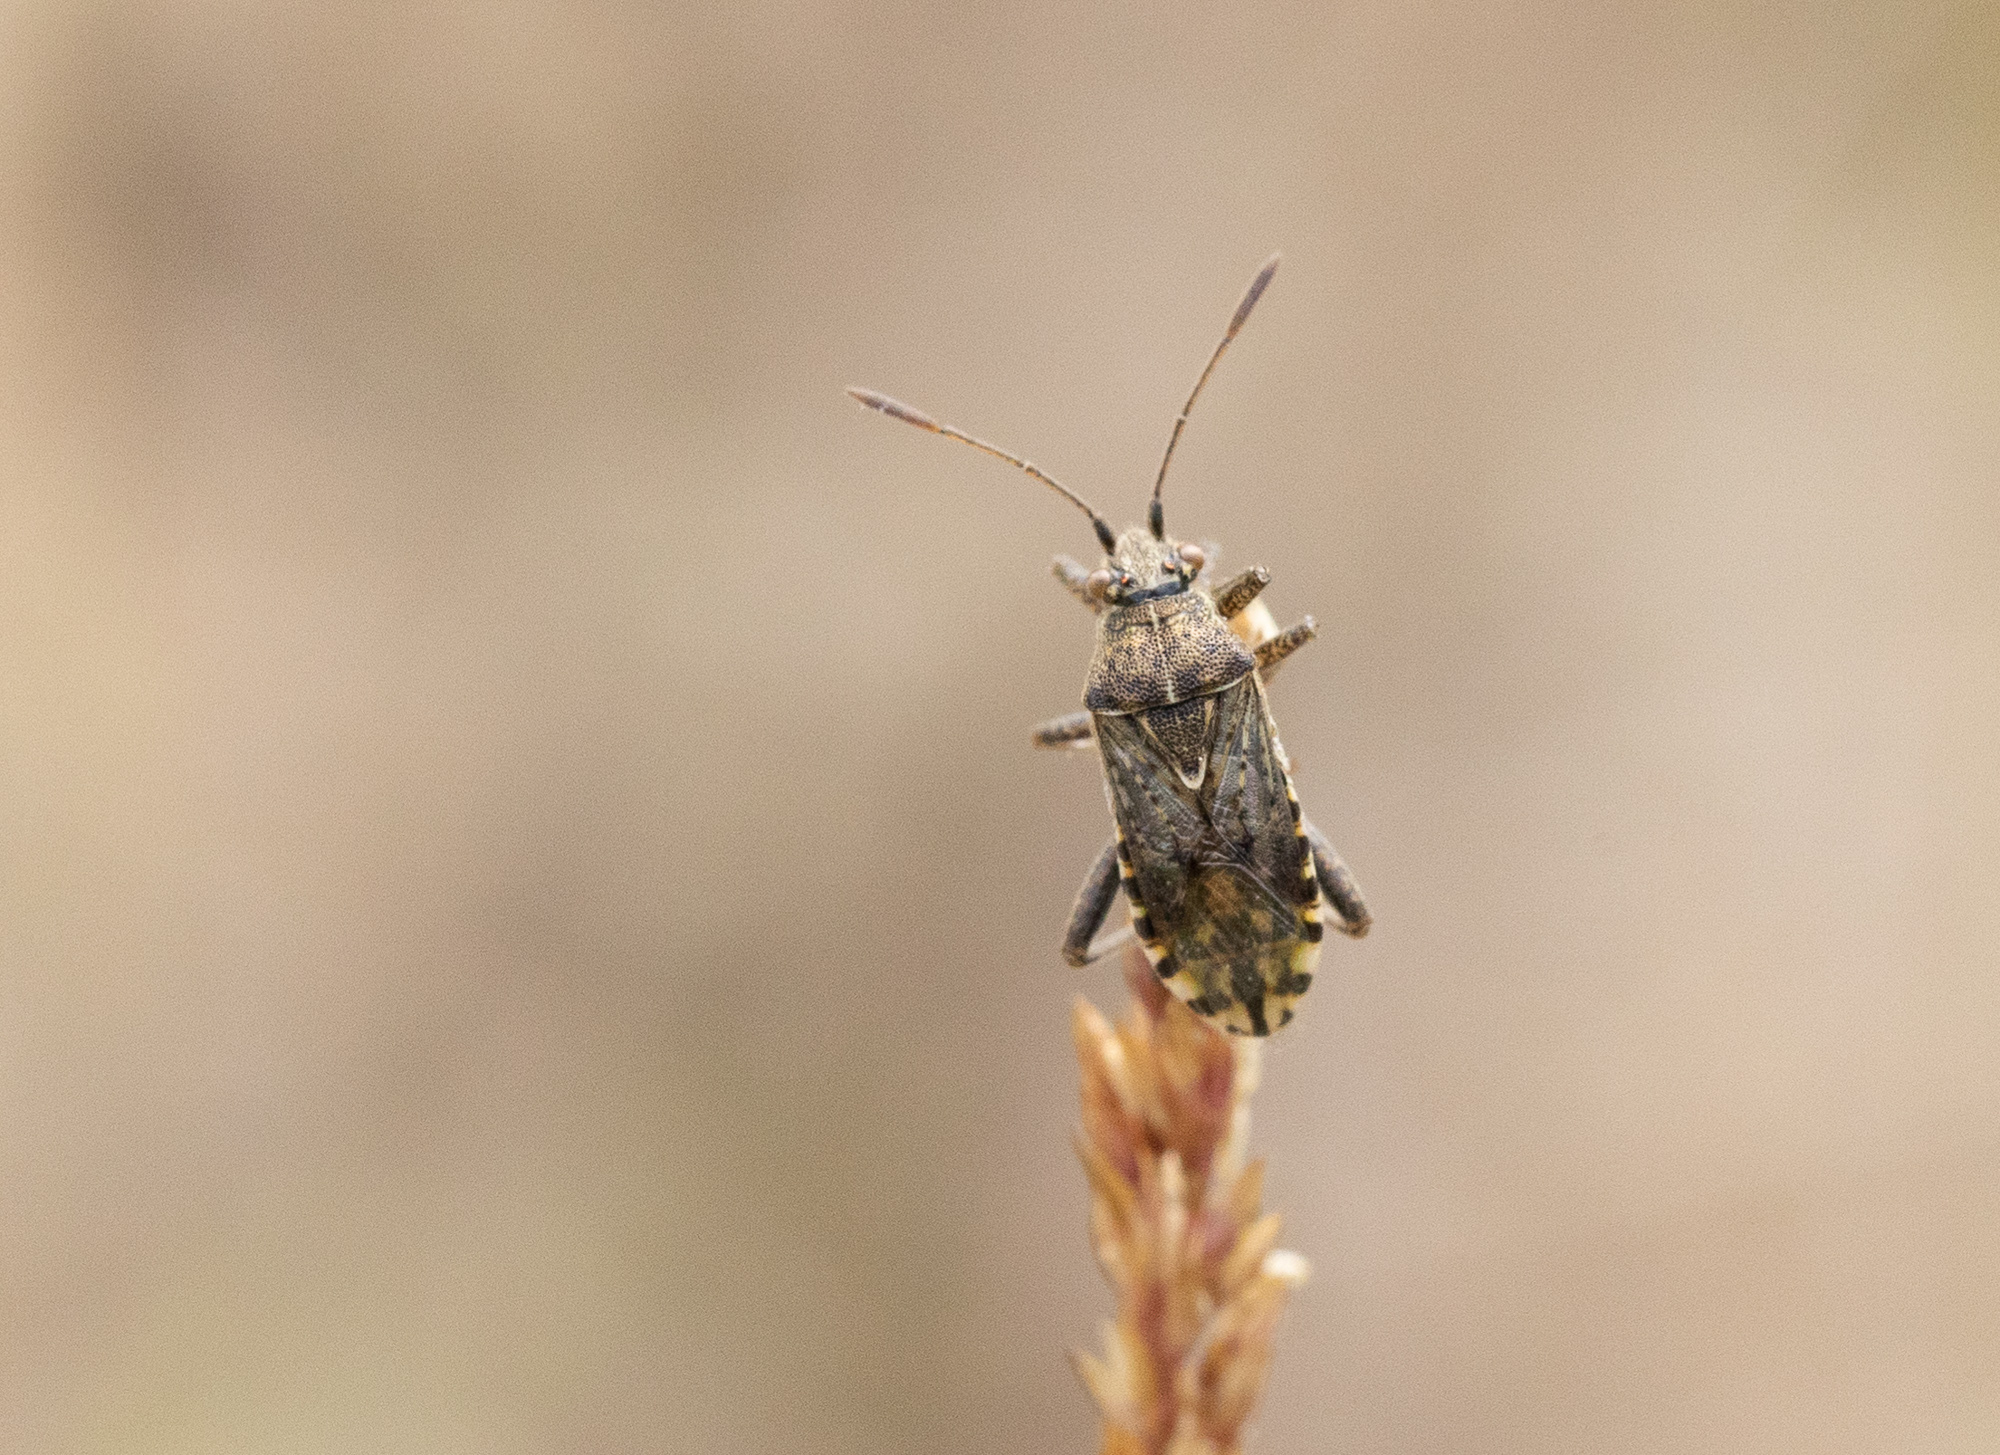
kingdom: Animalia
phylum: Arthropoda
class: Insecta
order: Hemiptera
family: Rhopalidae
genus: Stictopleurus
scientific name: Stictopleurus punctatonervosus
